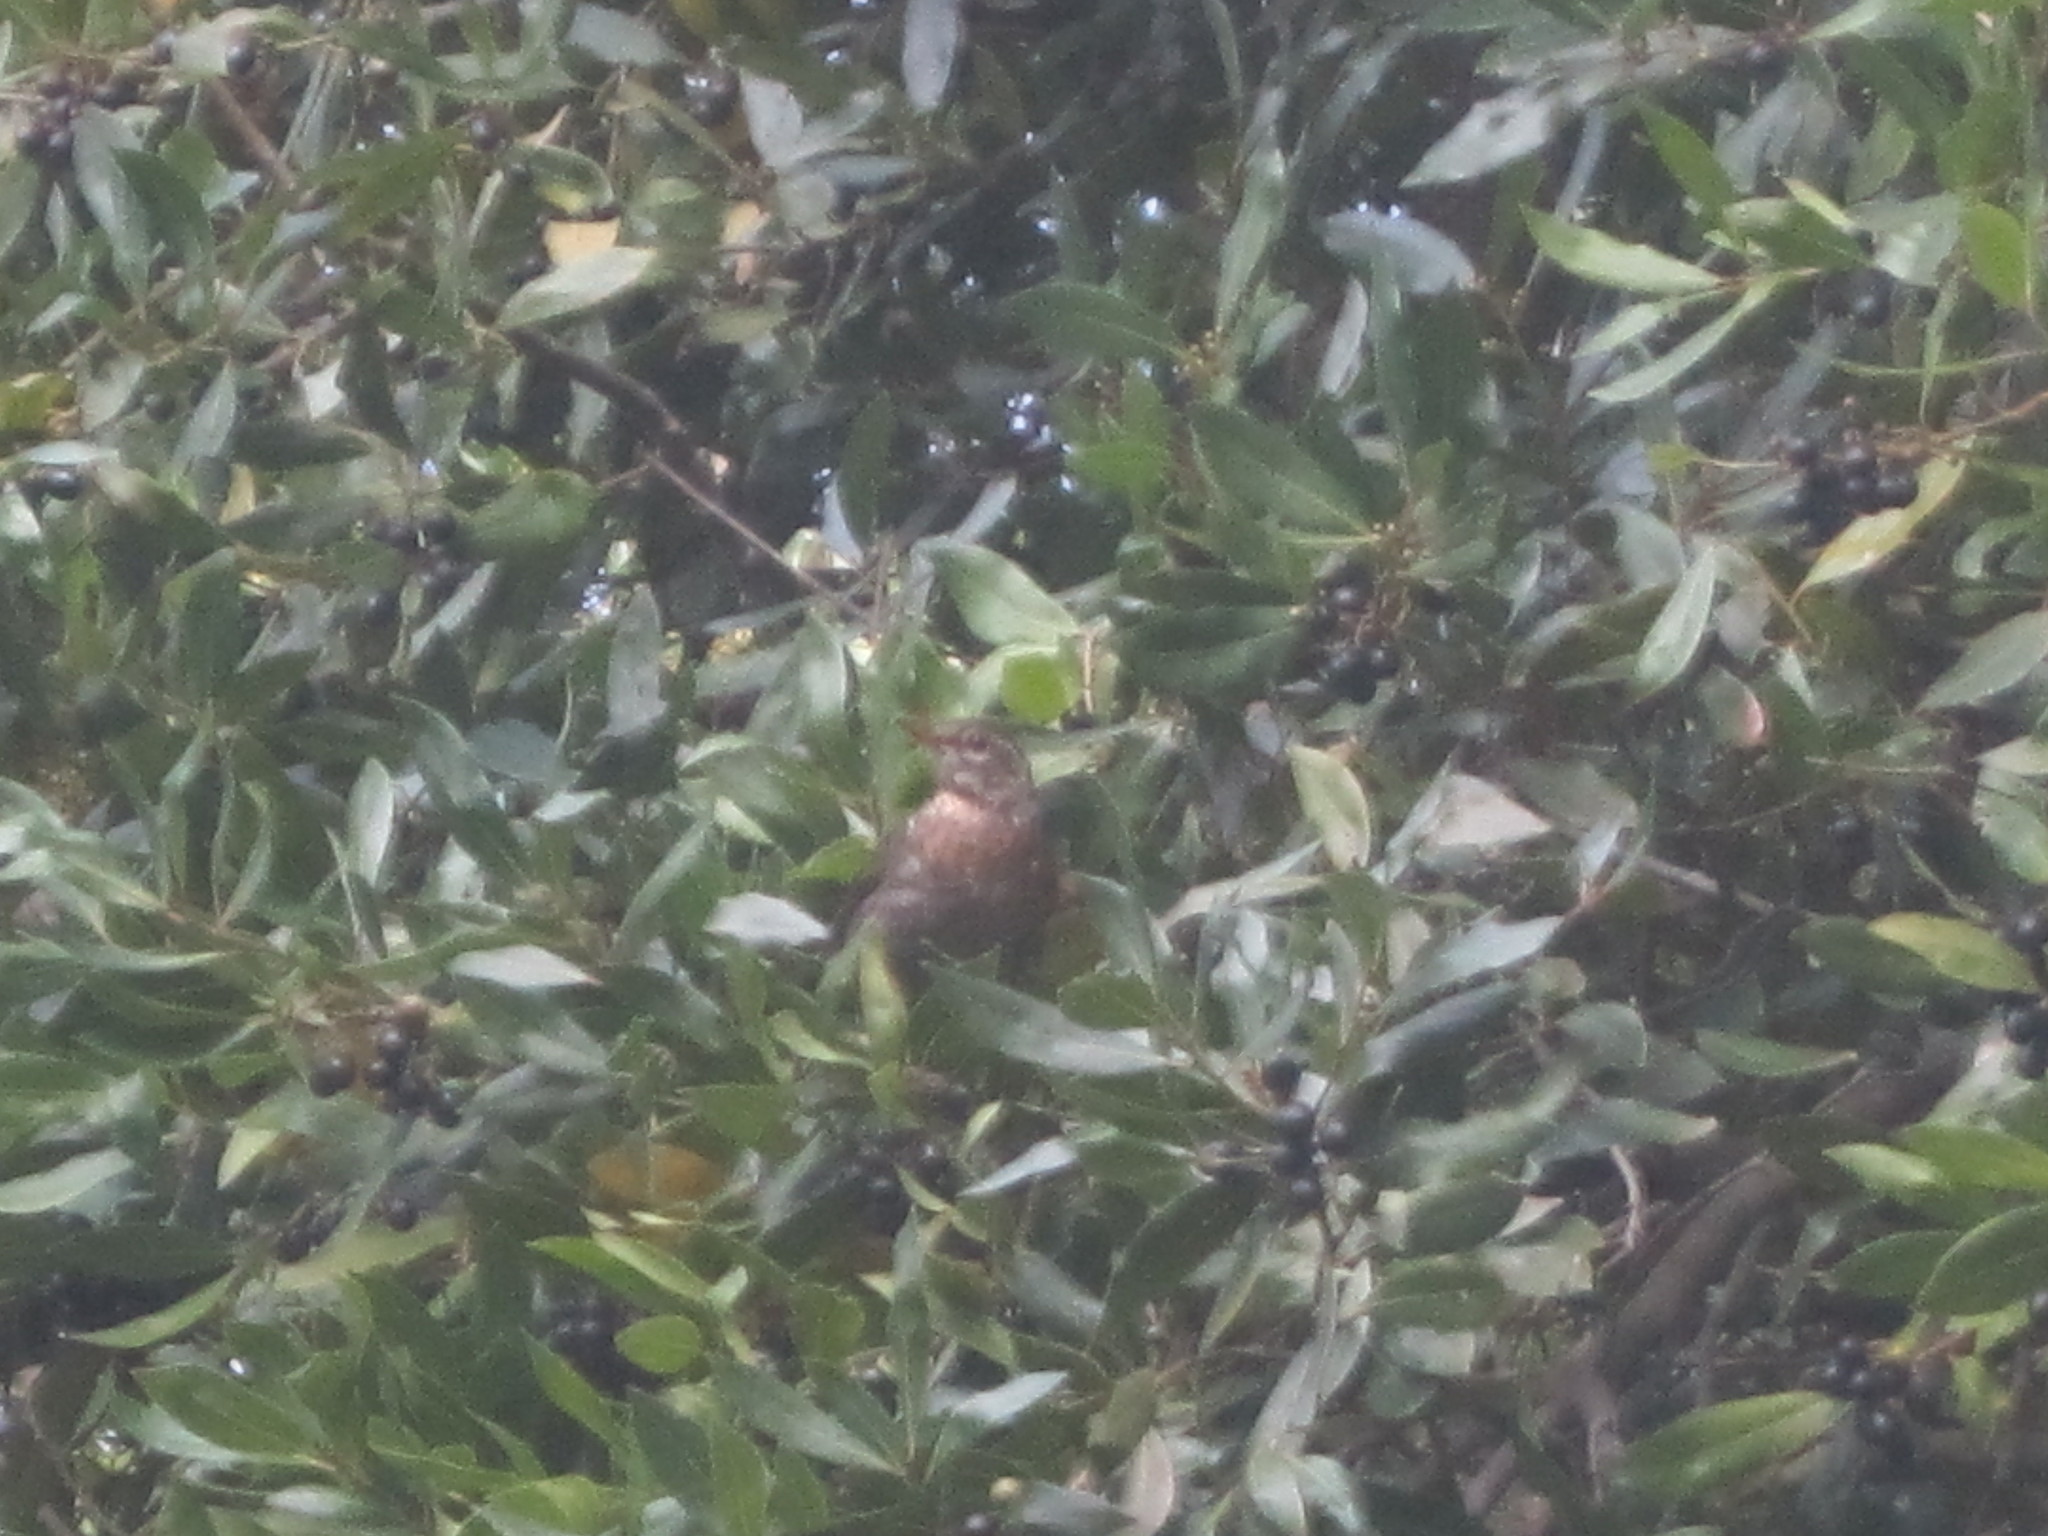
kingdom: Animalia
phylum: Chordata
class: Aves
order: Passeriformes
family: Turdidae
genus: Turdus
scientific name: Turdus merula
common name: Common blackbird
